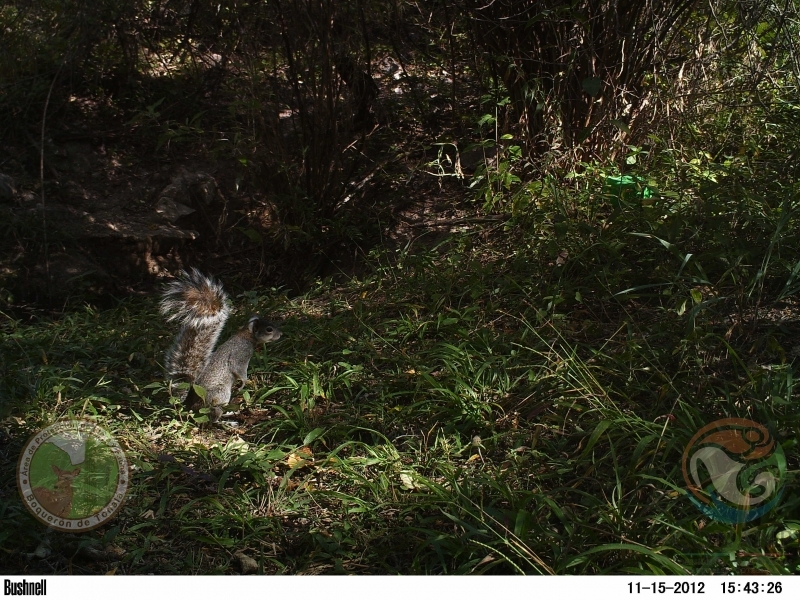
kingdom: Animalia
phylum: Chordata
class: Mammalia
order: Rodentia
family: Sciuridae
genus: Sciurus
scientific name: Sciurus aureogaster
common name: Red-bellied squirrel
